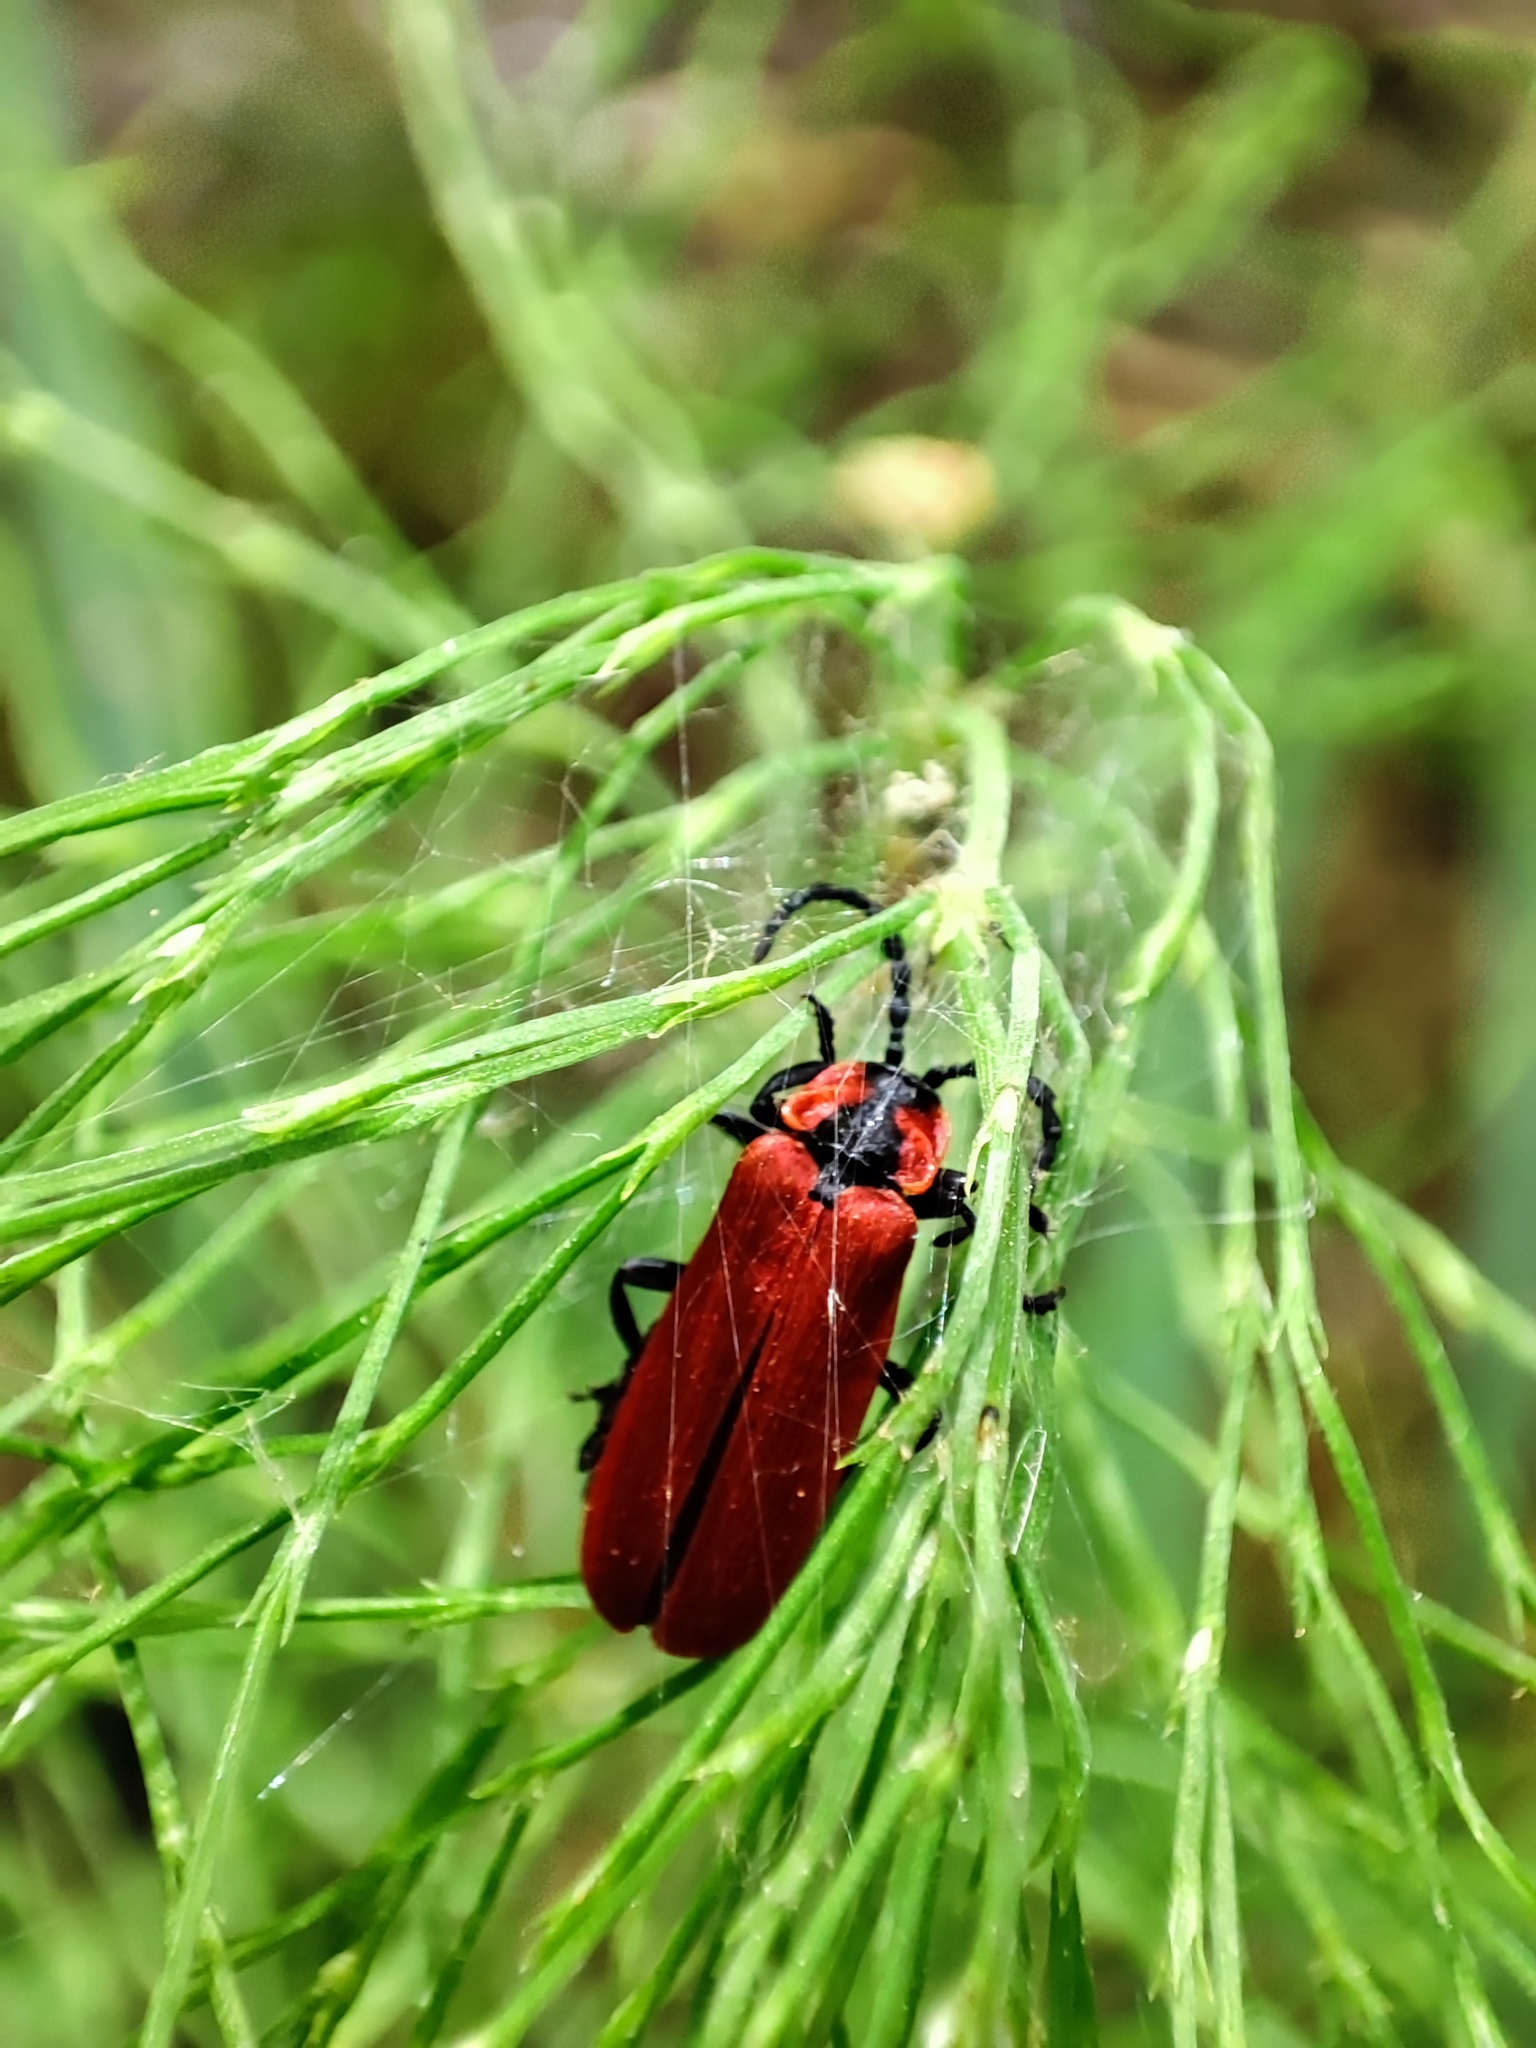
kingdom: Animalia
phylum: Arthropoda
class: Insecta
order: Coleoptera
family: Lycidae
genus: Lygistopterus
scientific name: Lygistopterus sanguineus
